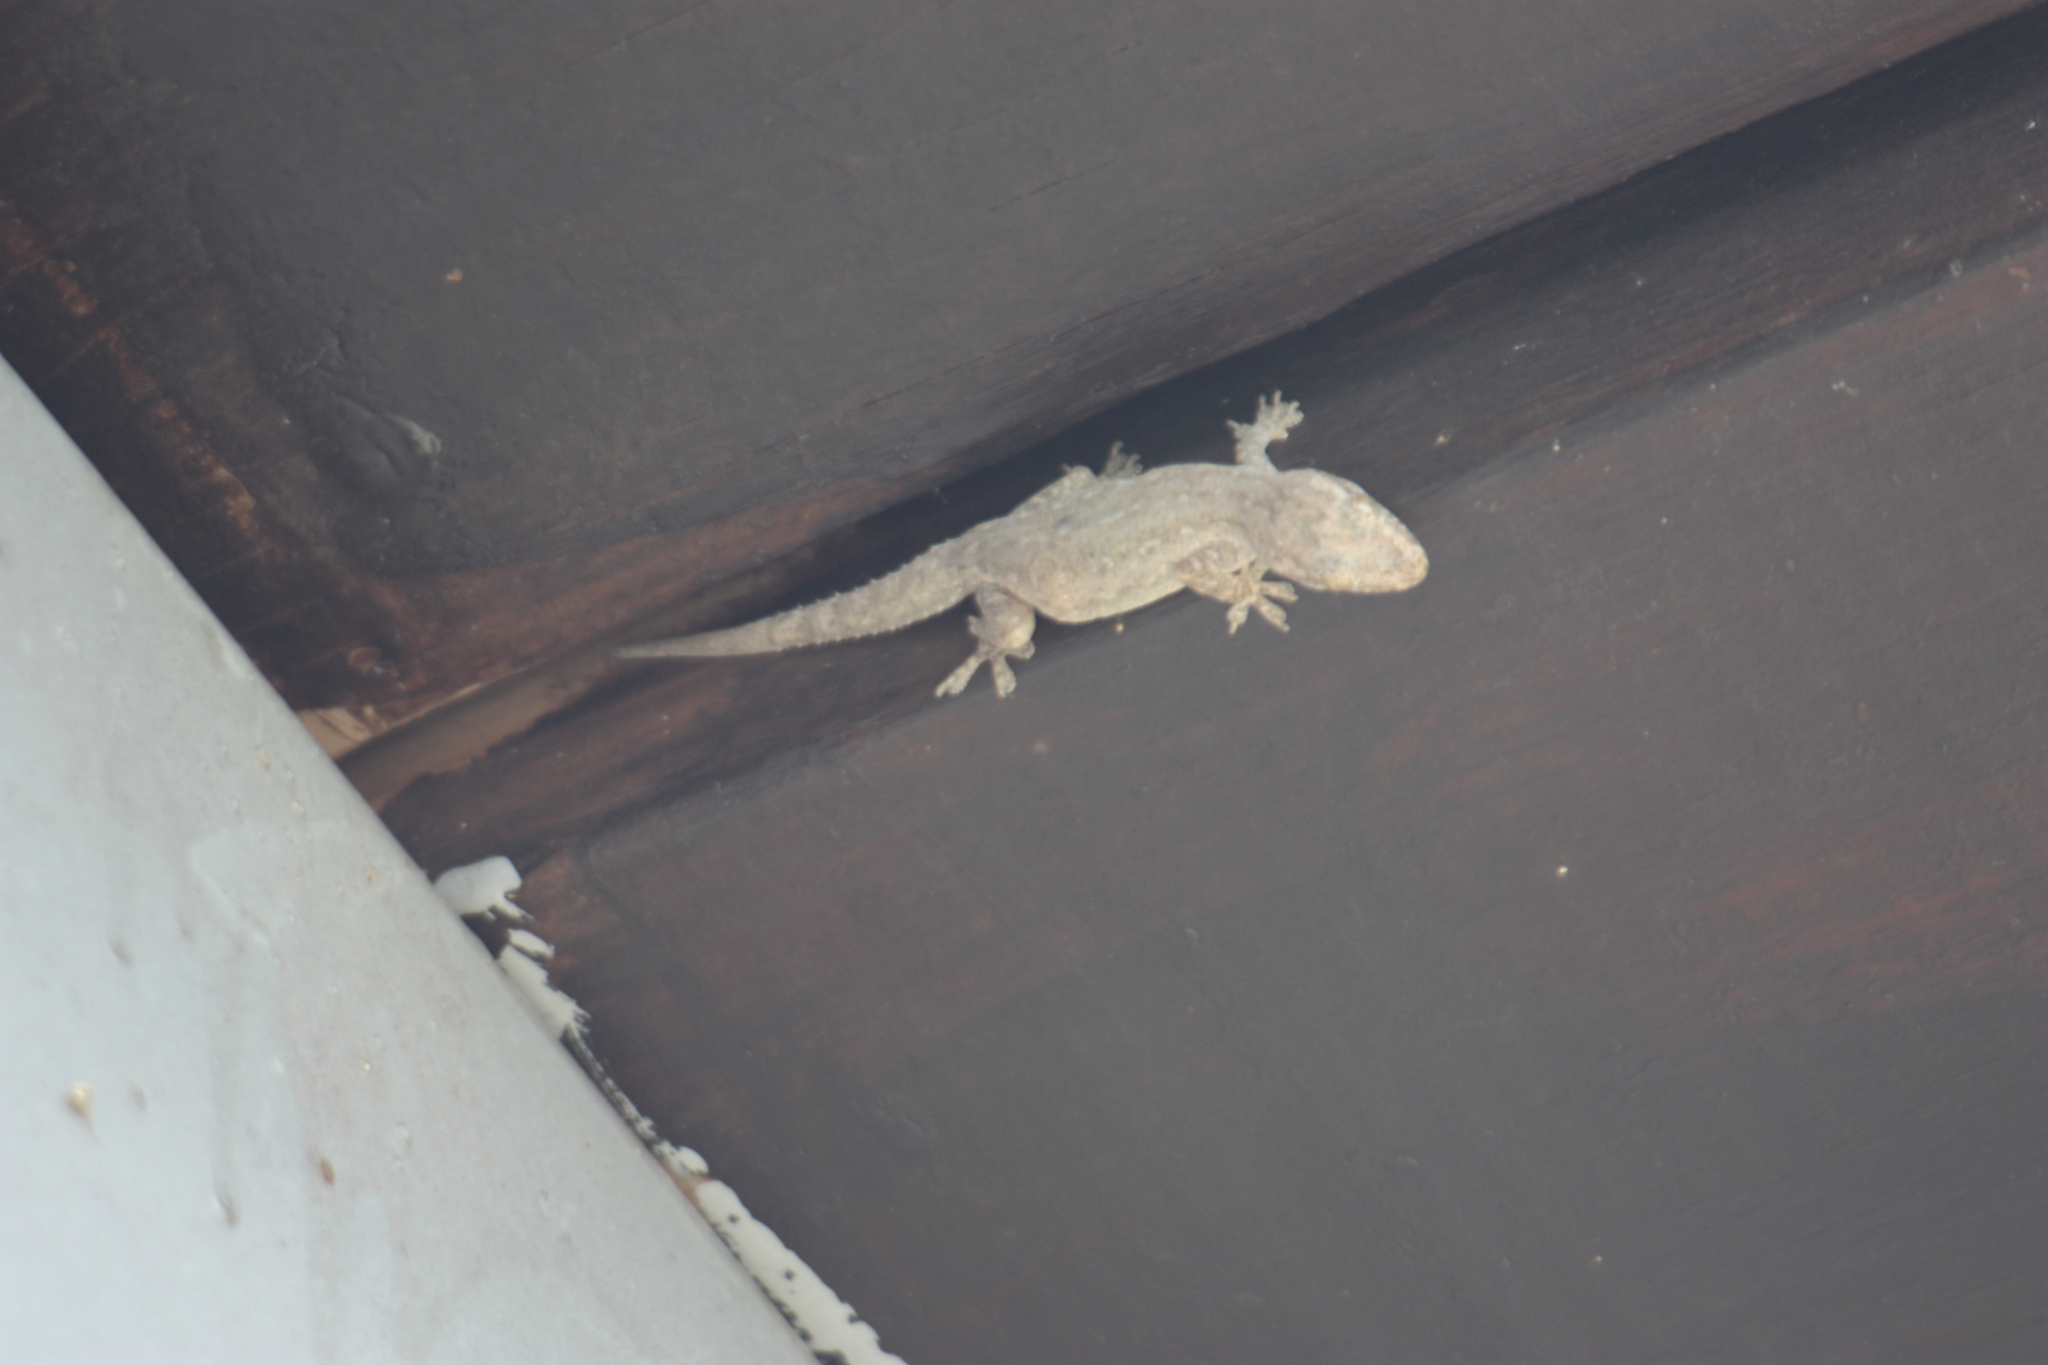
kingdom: Animalia
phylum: Chordata
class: Squamata
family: Gekkonidae
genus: Hemidactylus
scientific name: Hemidactylus frenatus
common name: Common house gecko
